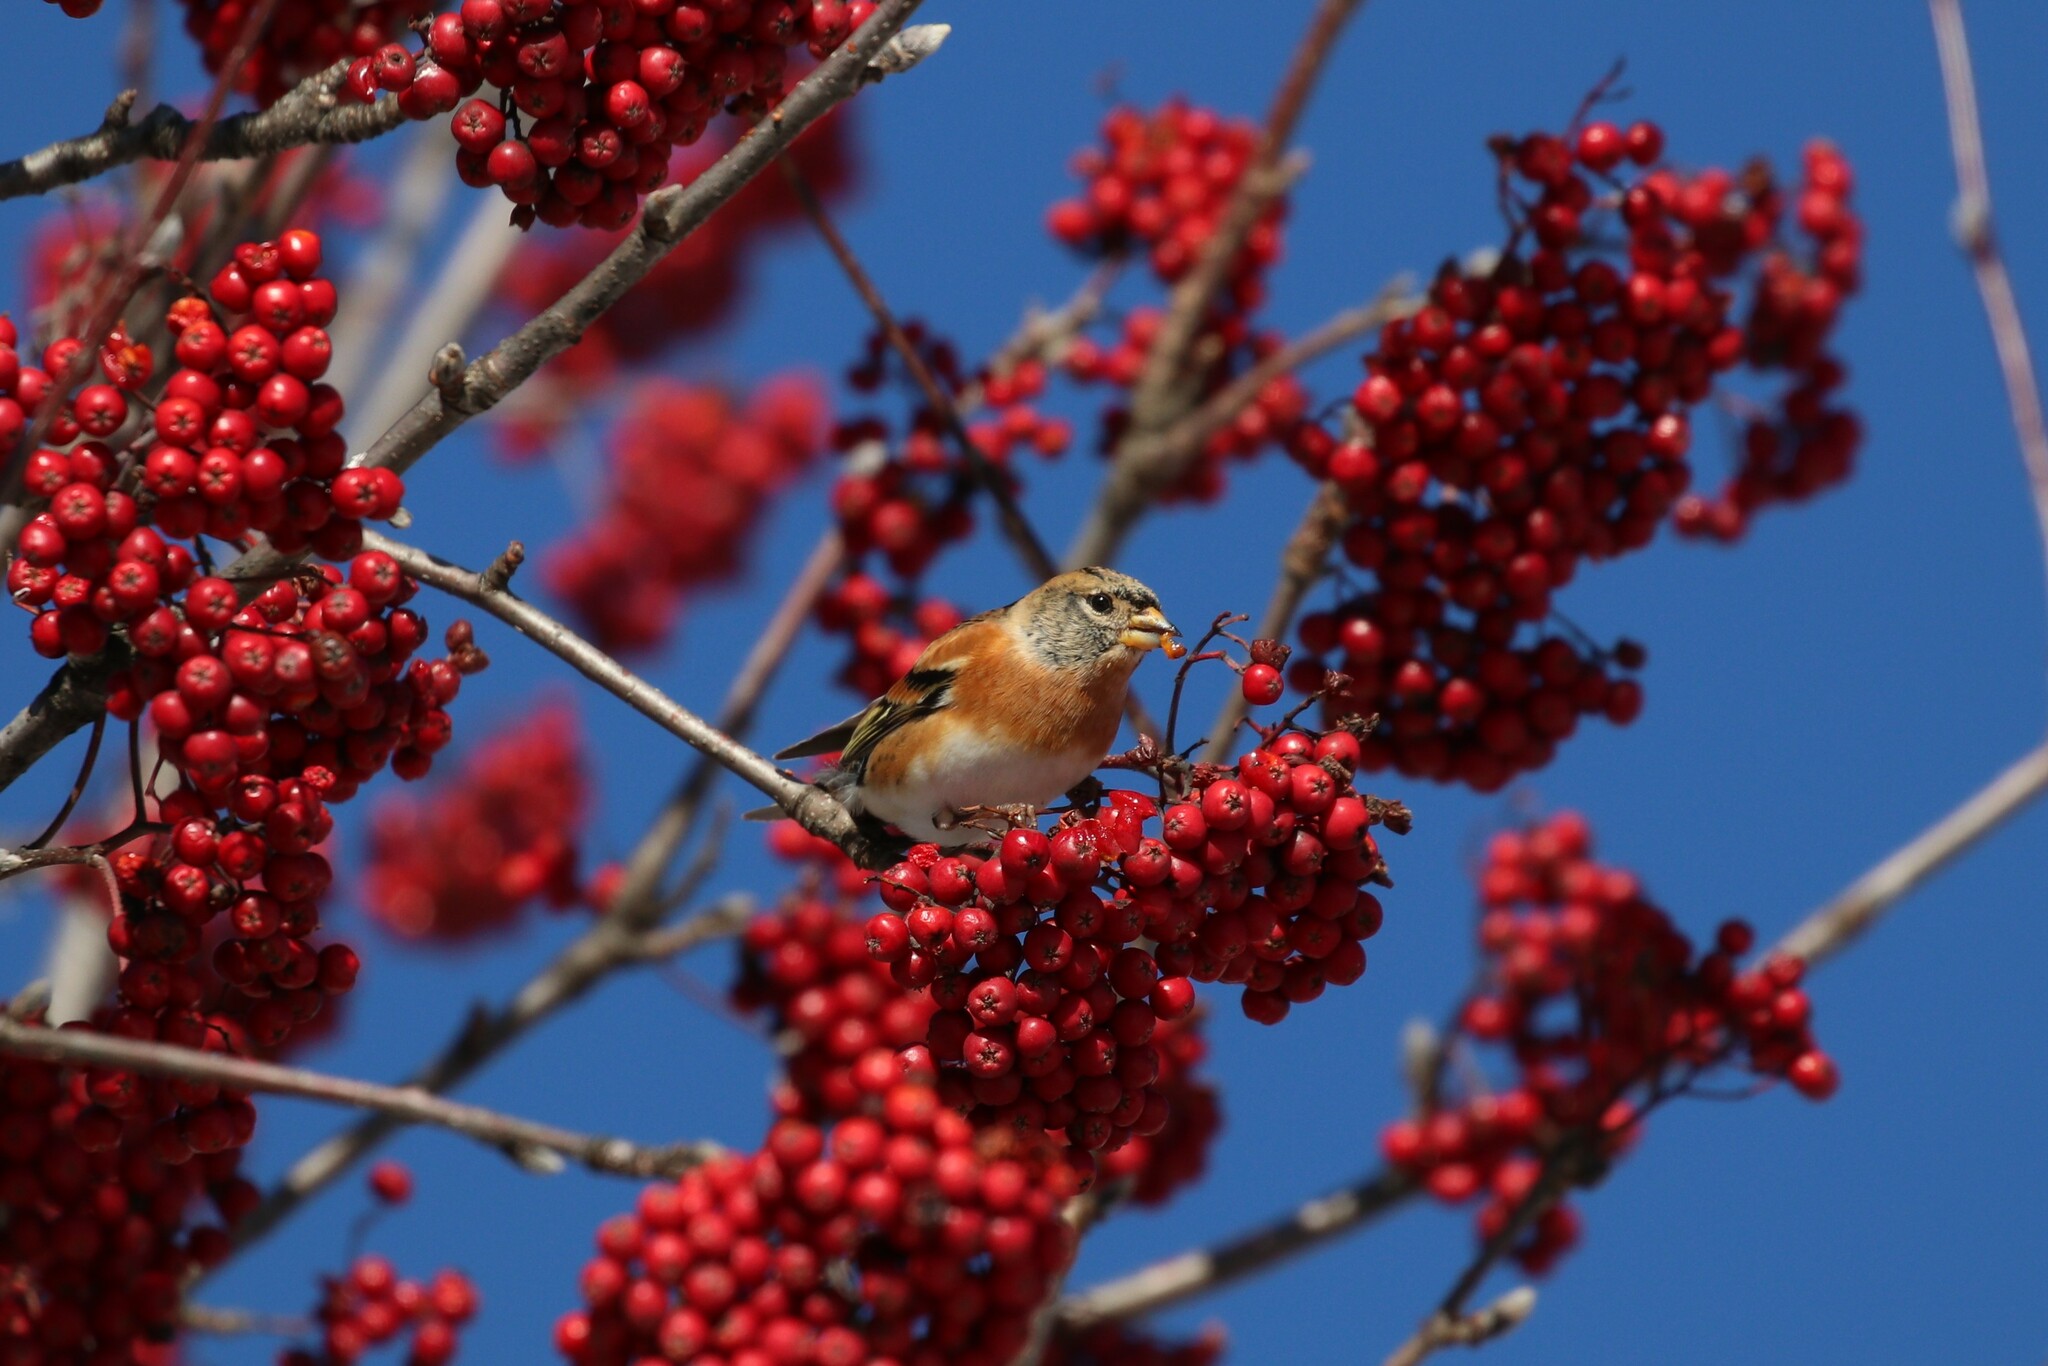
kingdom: Animalia
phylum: Chordata
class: Aves
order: Passeriformes
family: Fringillidae
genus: Fringilla
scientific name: Fringilla montifringilla
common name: Brambling
